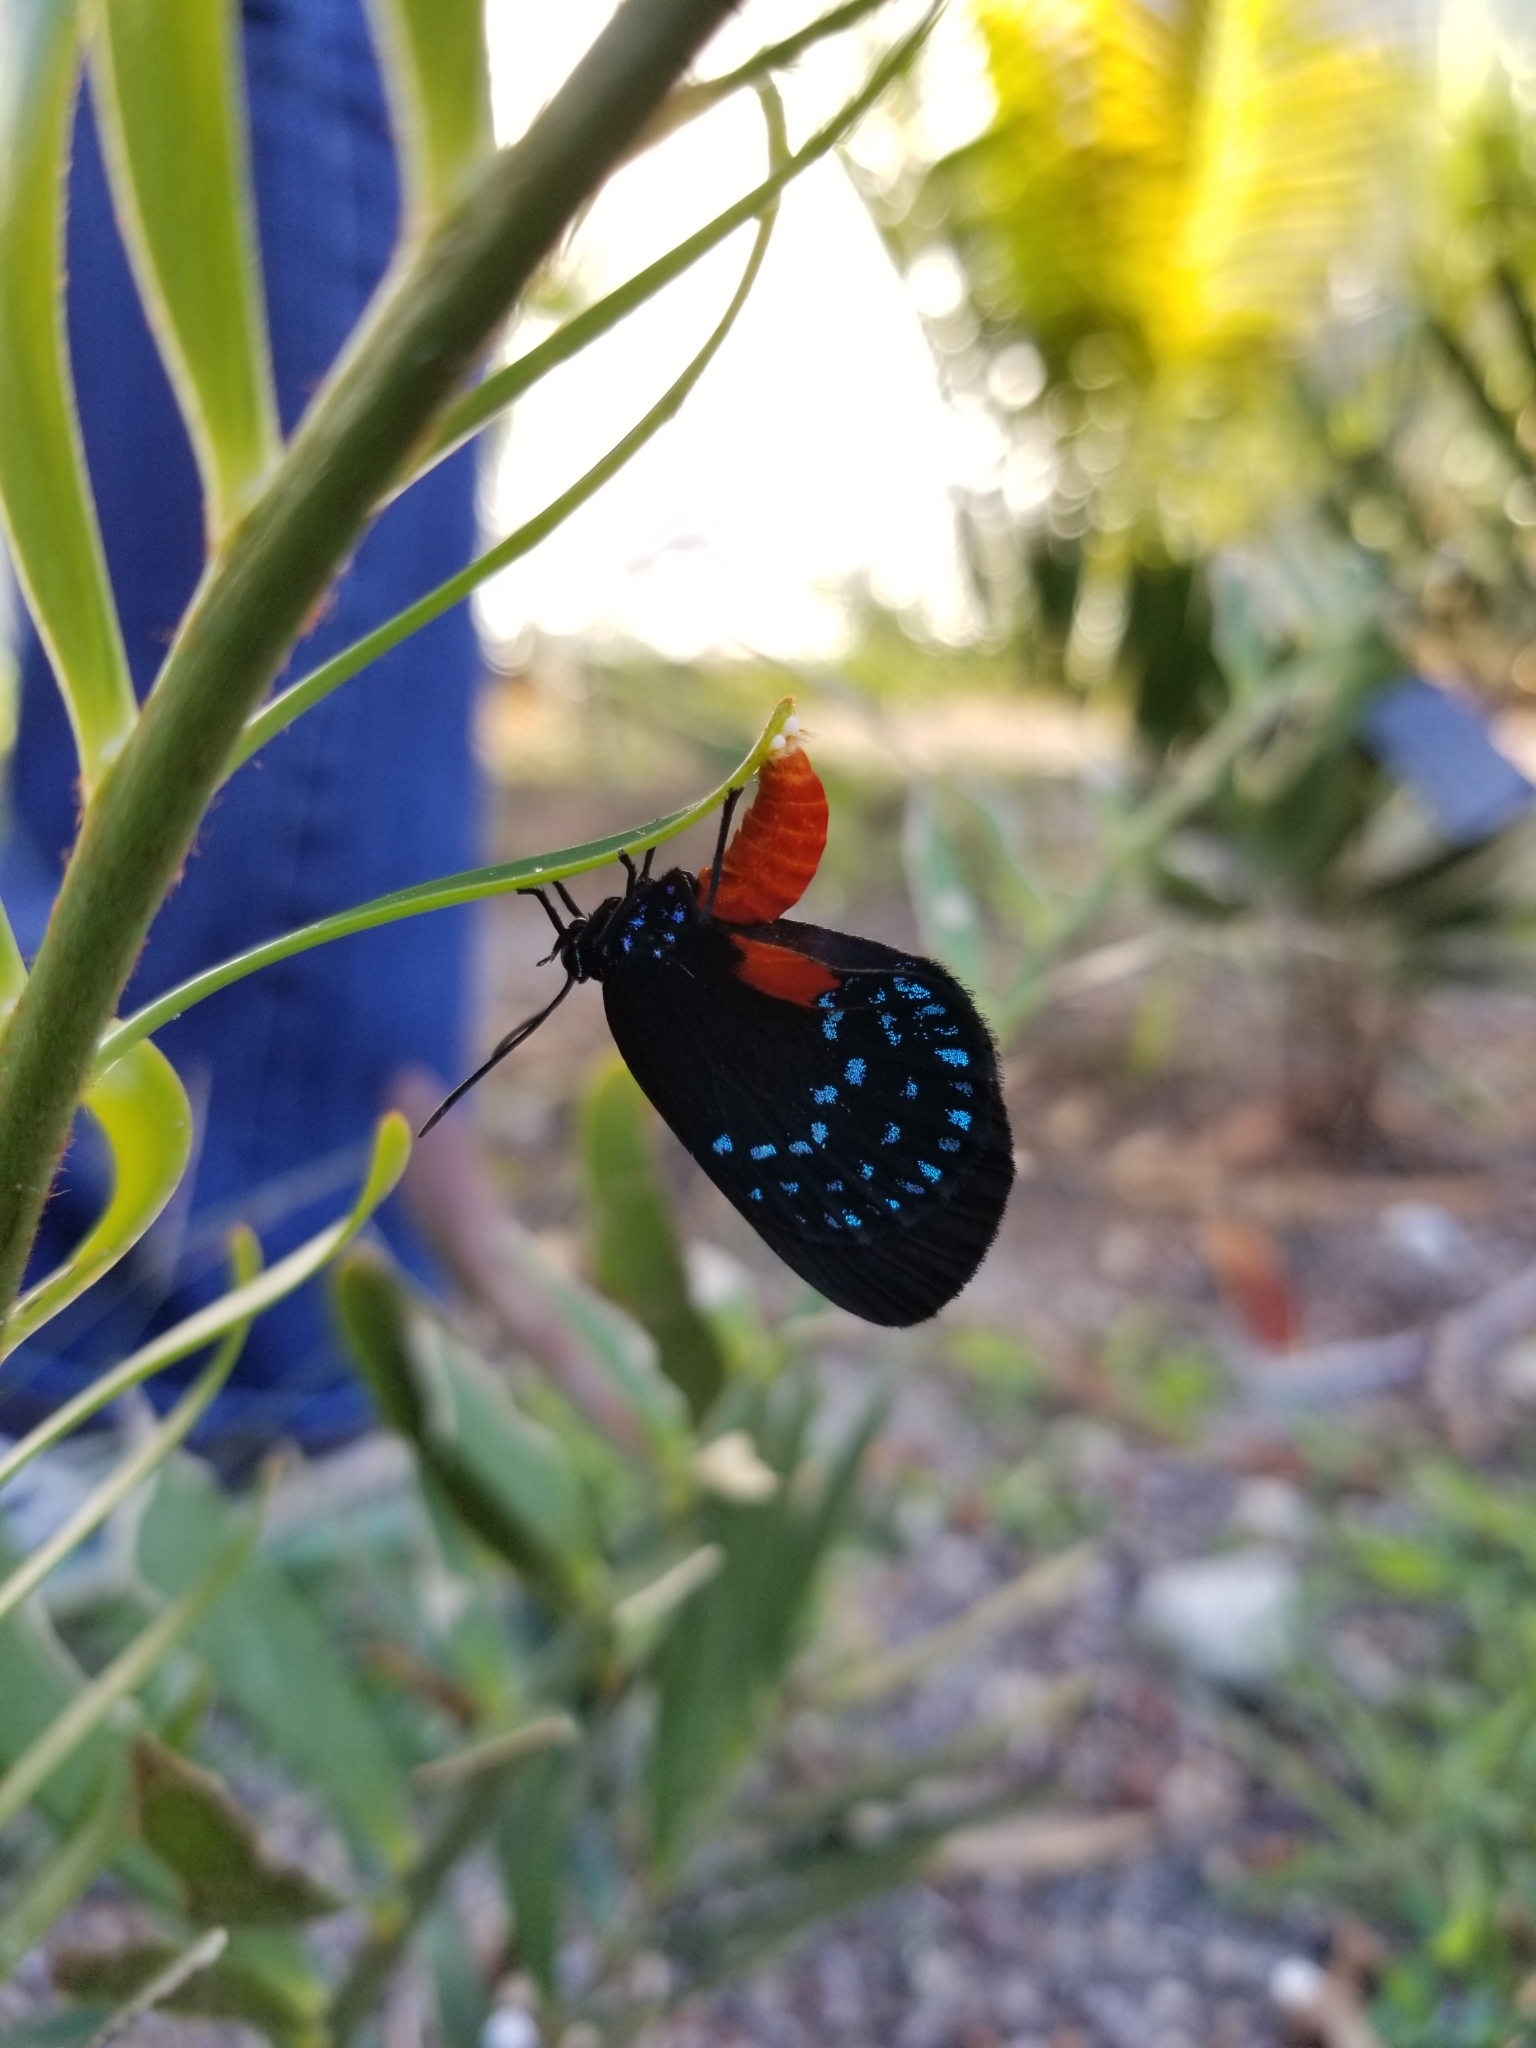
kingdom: Animalia
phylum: Arthropoda
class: Insecta
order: Lepidoptera
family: Lycaenidae
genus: Eumaeus
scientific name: Eumaeus atala
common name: Atala
